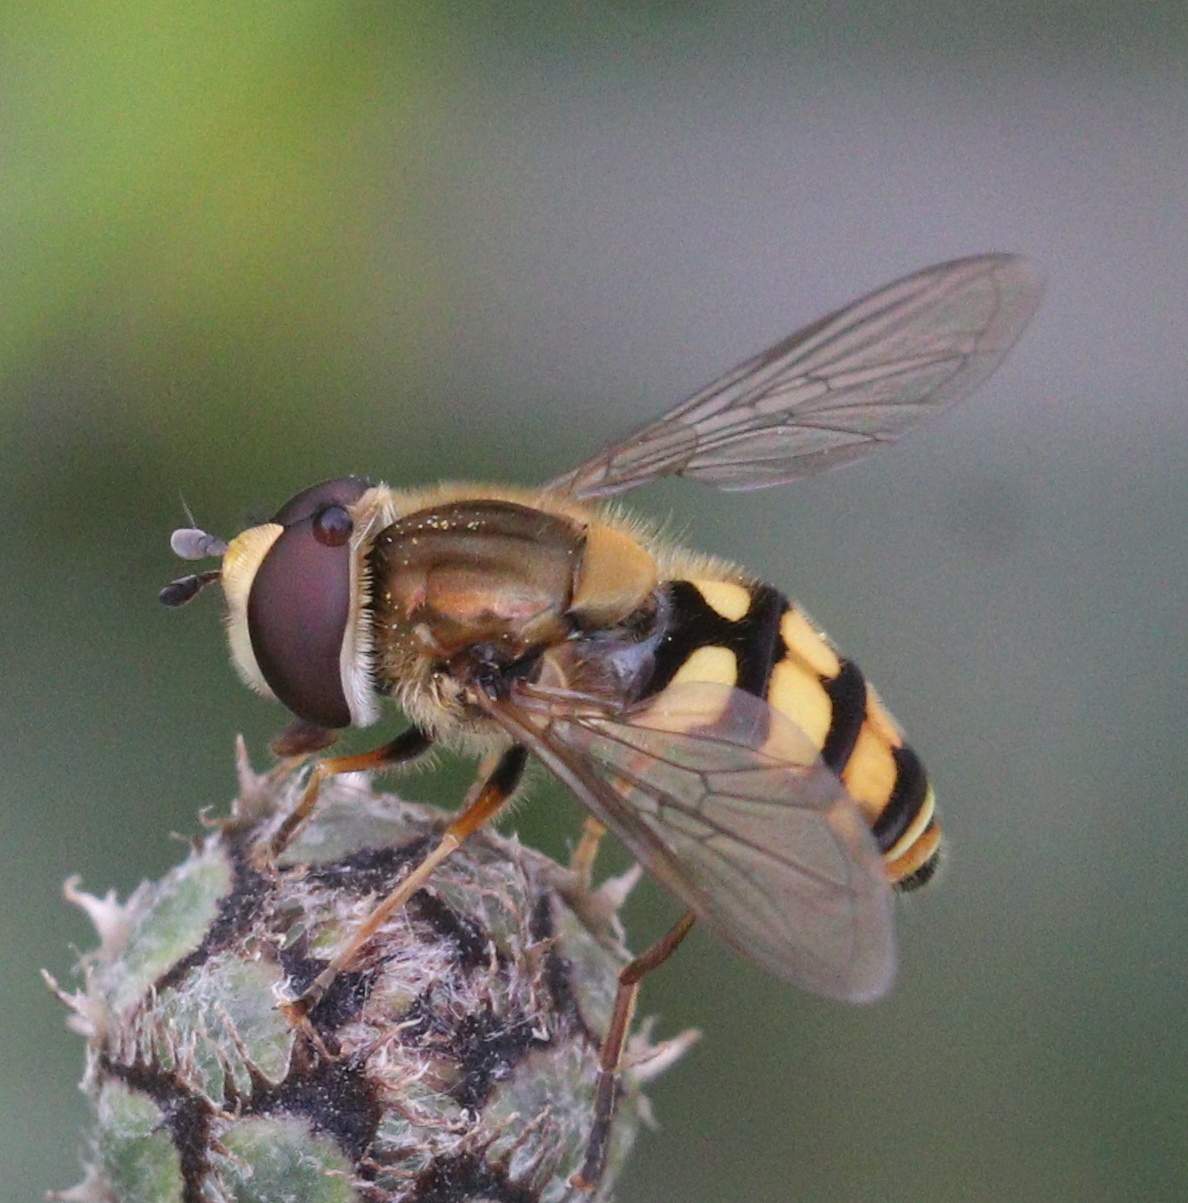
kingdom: Animalia
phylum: Arthropoda
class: Insecta
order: Diptera
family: Syrphidae
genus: Eupeodes
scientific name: Eupeodes corollae
